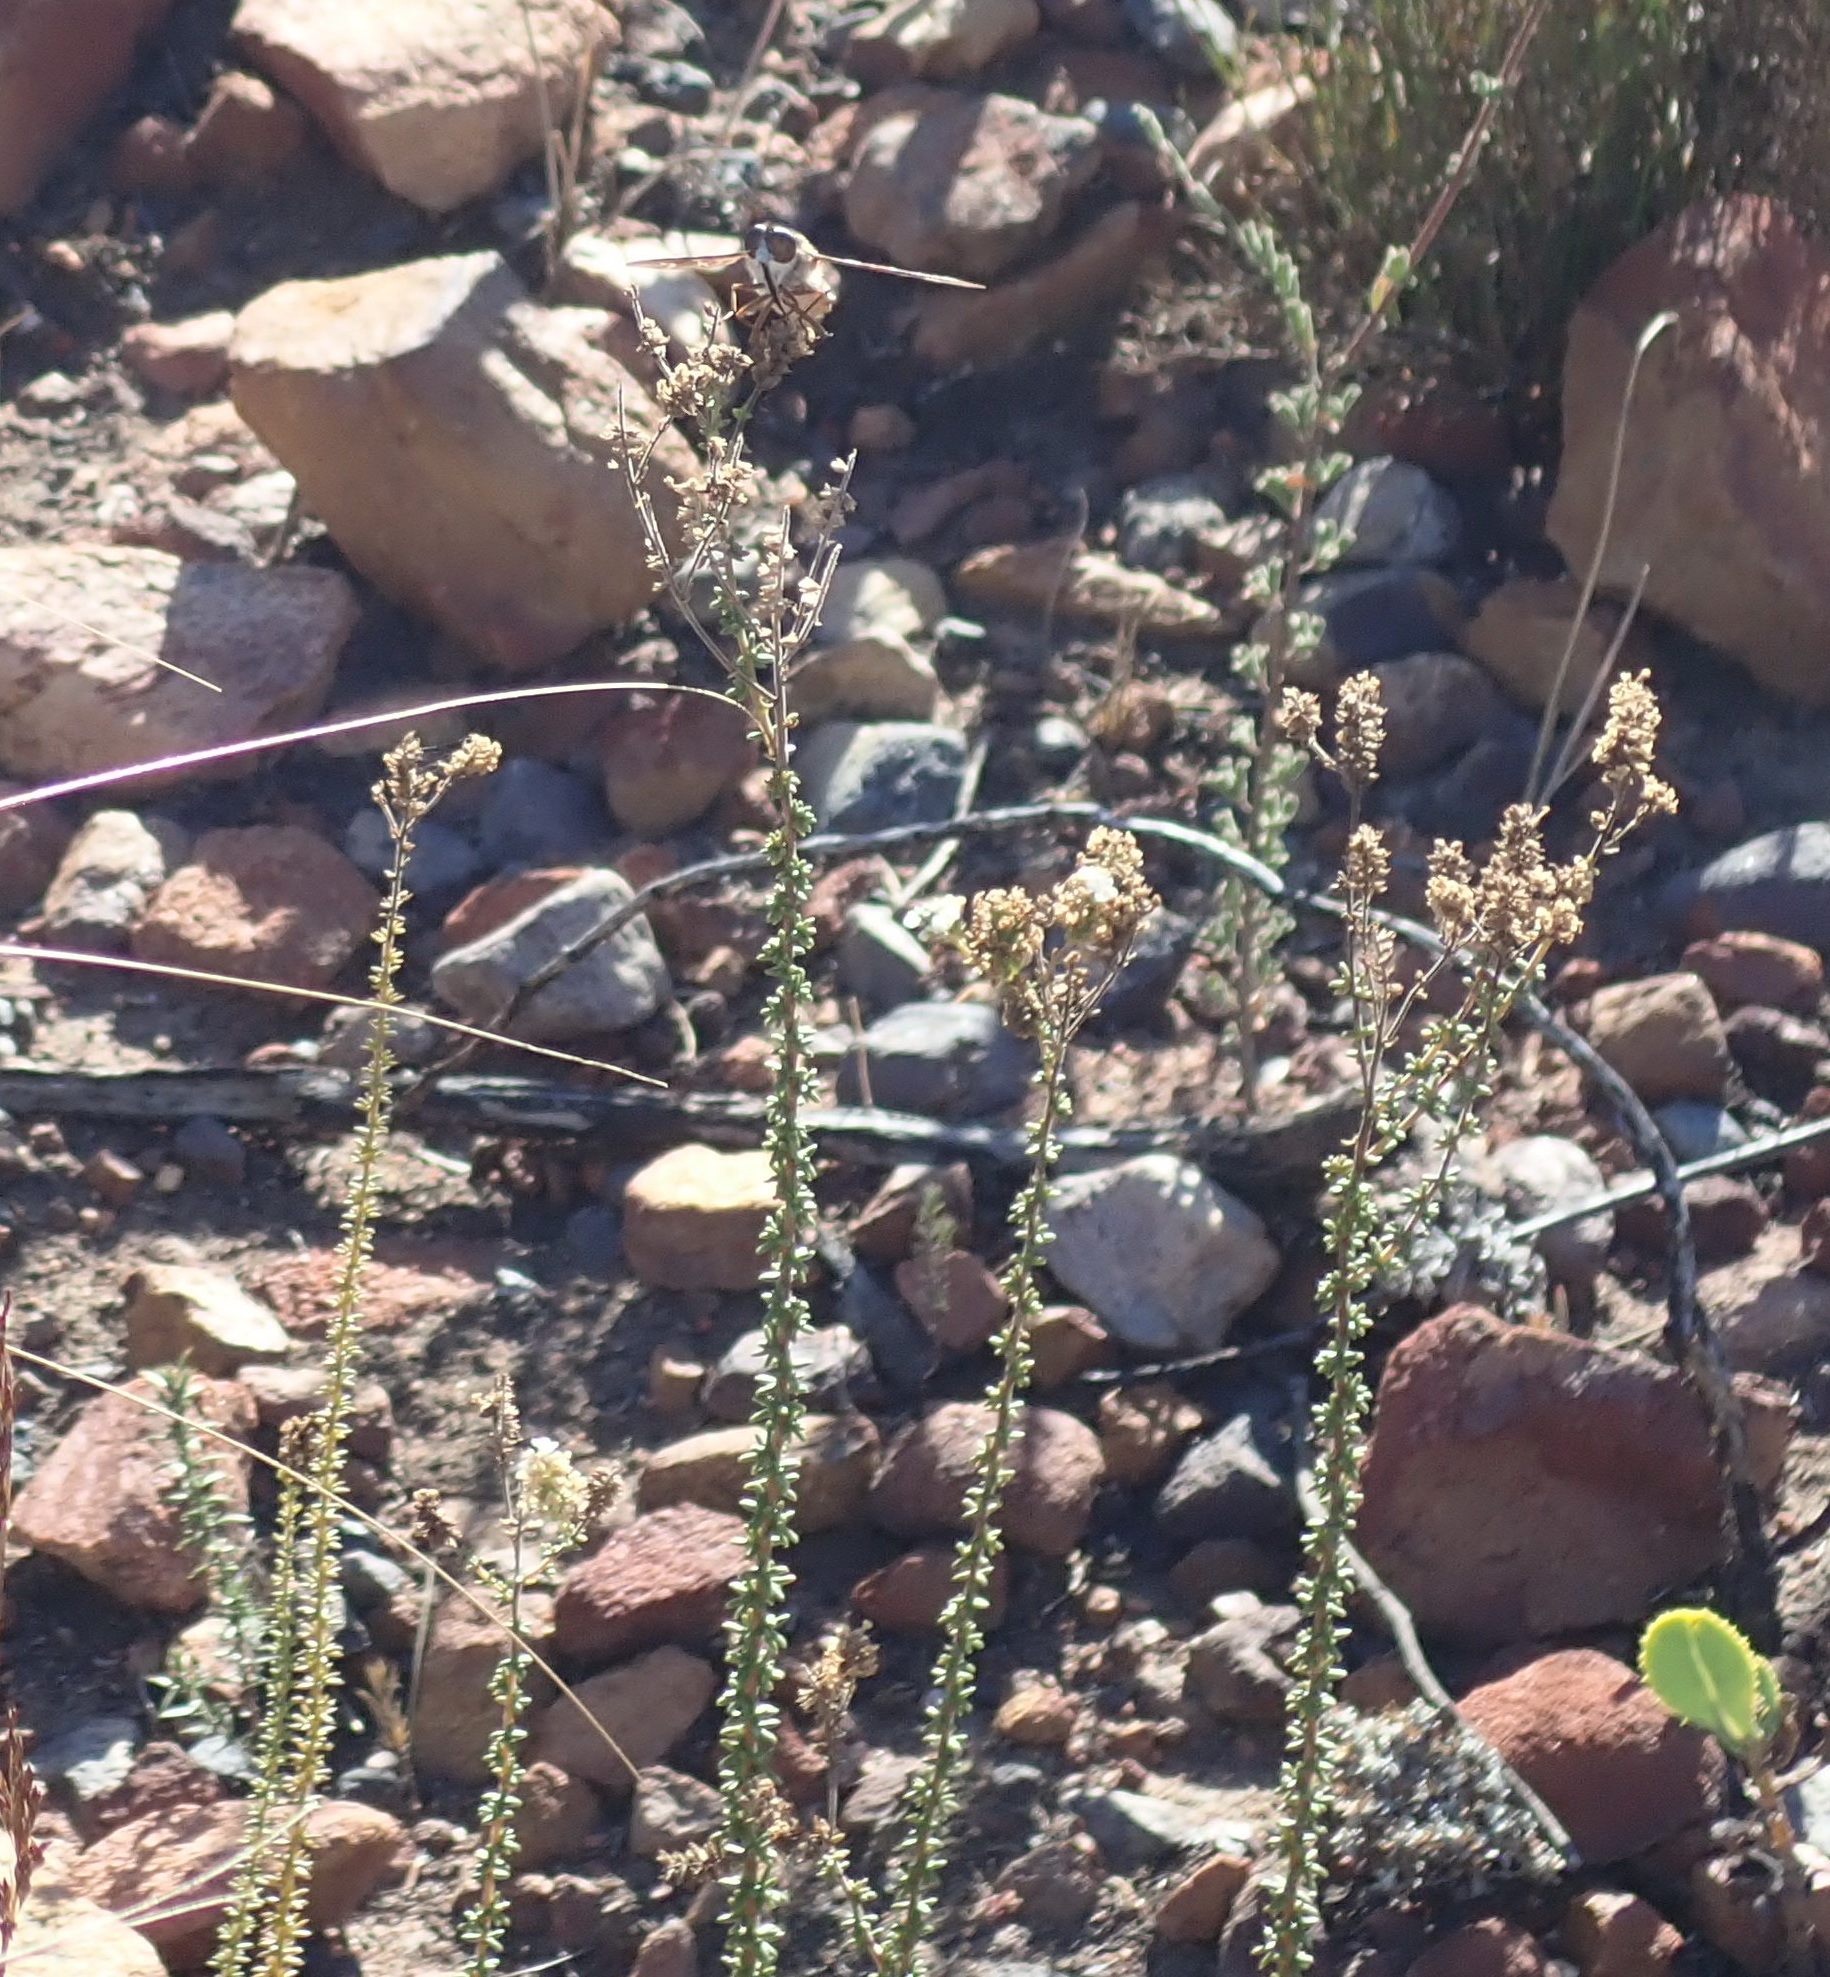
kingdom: Animalia
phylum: Arthropoda
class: Insecta
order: Diptera
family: Nemestrinidae
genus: Prosoeca
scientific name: Prosoeca ganglbaueri
